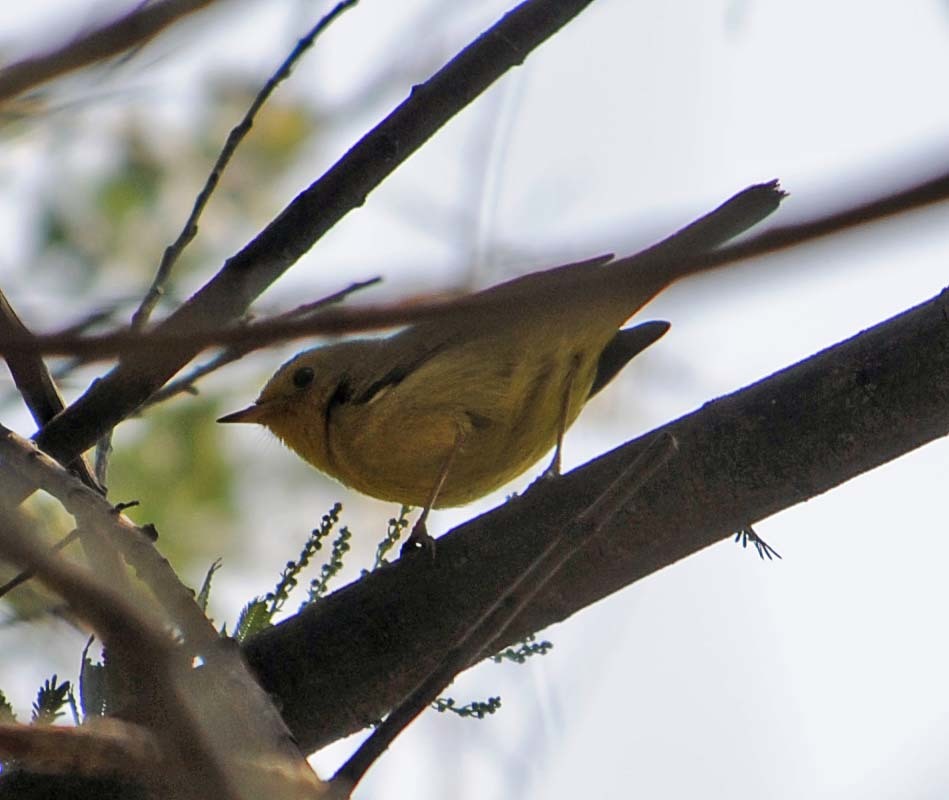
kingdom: Animalia
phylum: Chordata
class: Aves
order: Passeriformes
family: Parulidae
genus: Cardellina
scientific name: Cardellina pusilla
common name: Wilson's warbler
